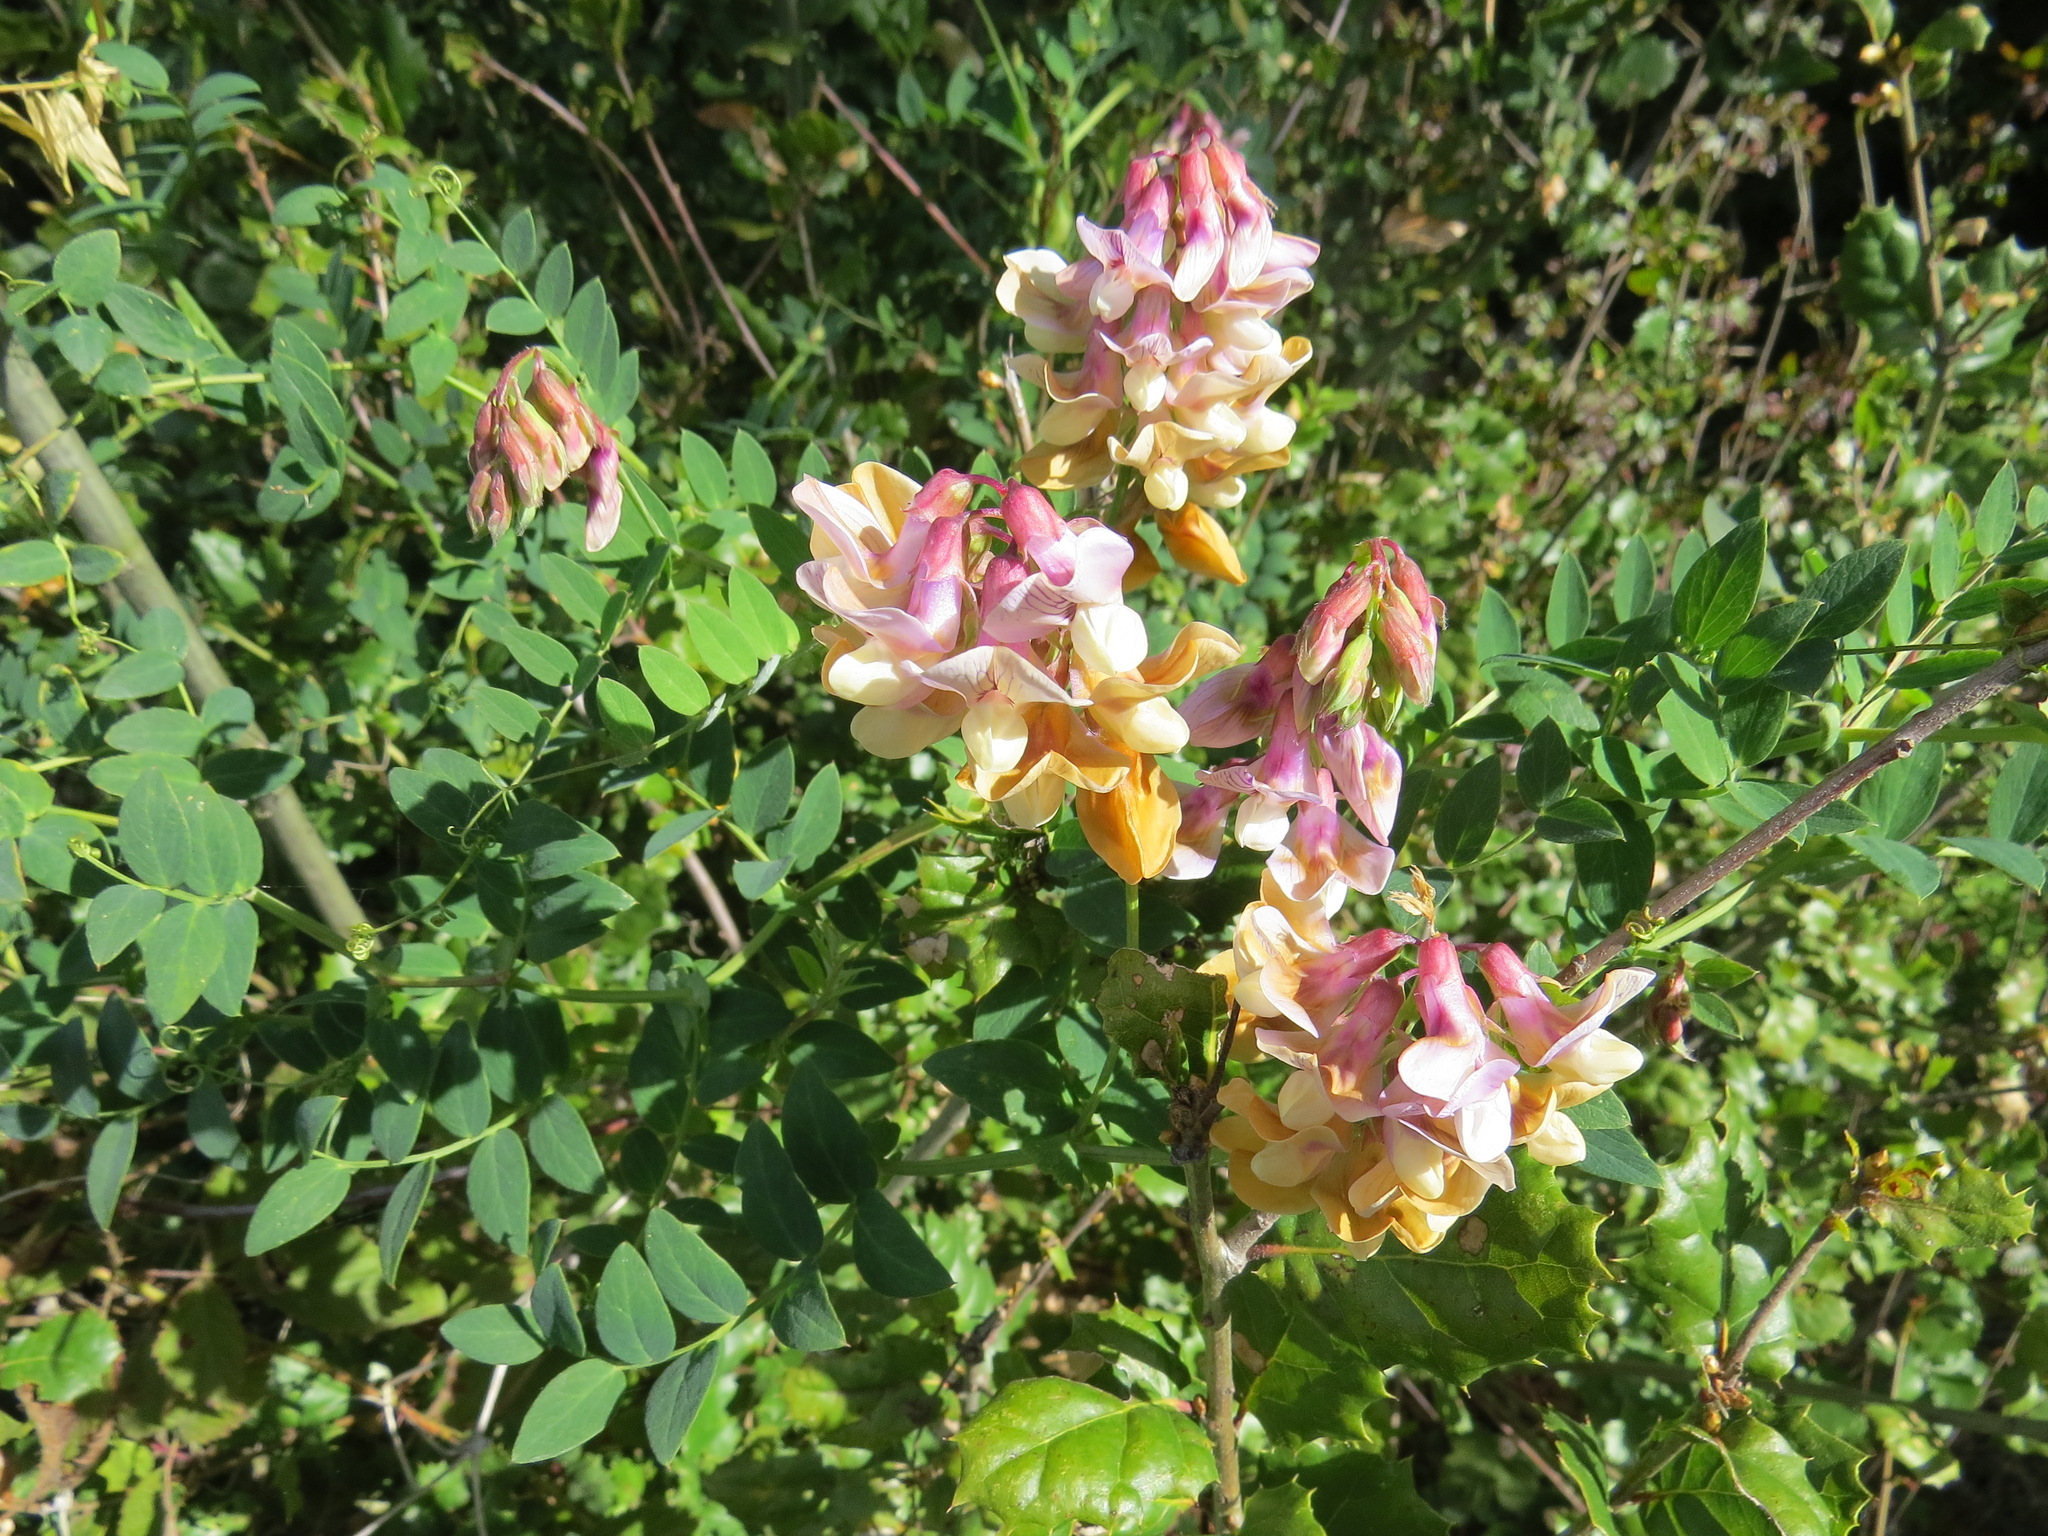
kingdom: Plantae
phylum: Tracheophyta
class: Magnoliopsida
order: Fabales
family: Fabaceae
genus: Lathyrus
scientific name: Lathyrus vestitus
